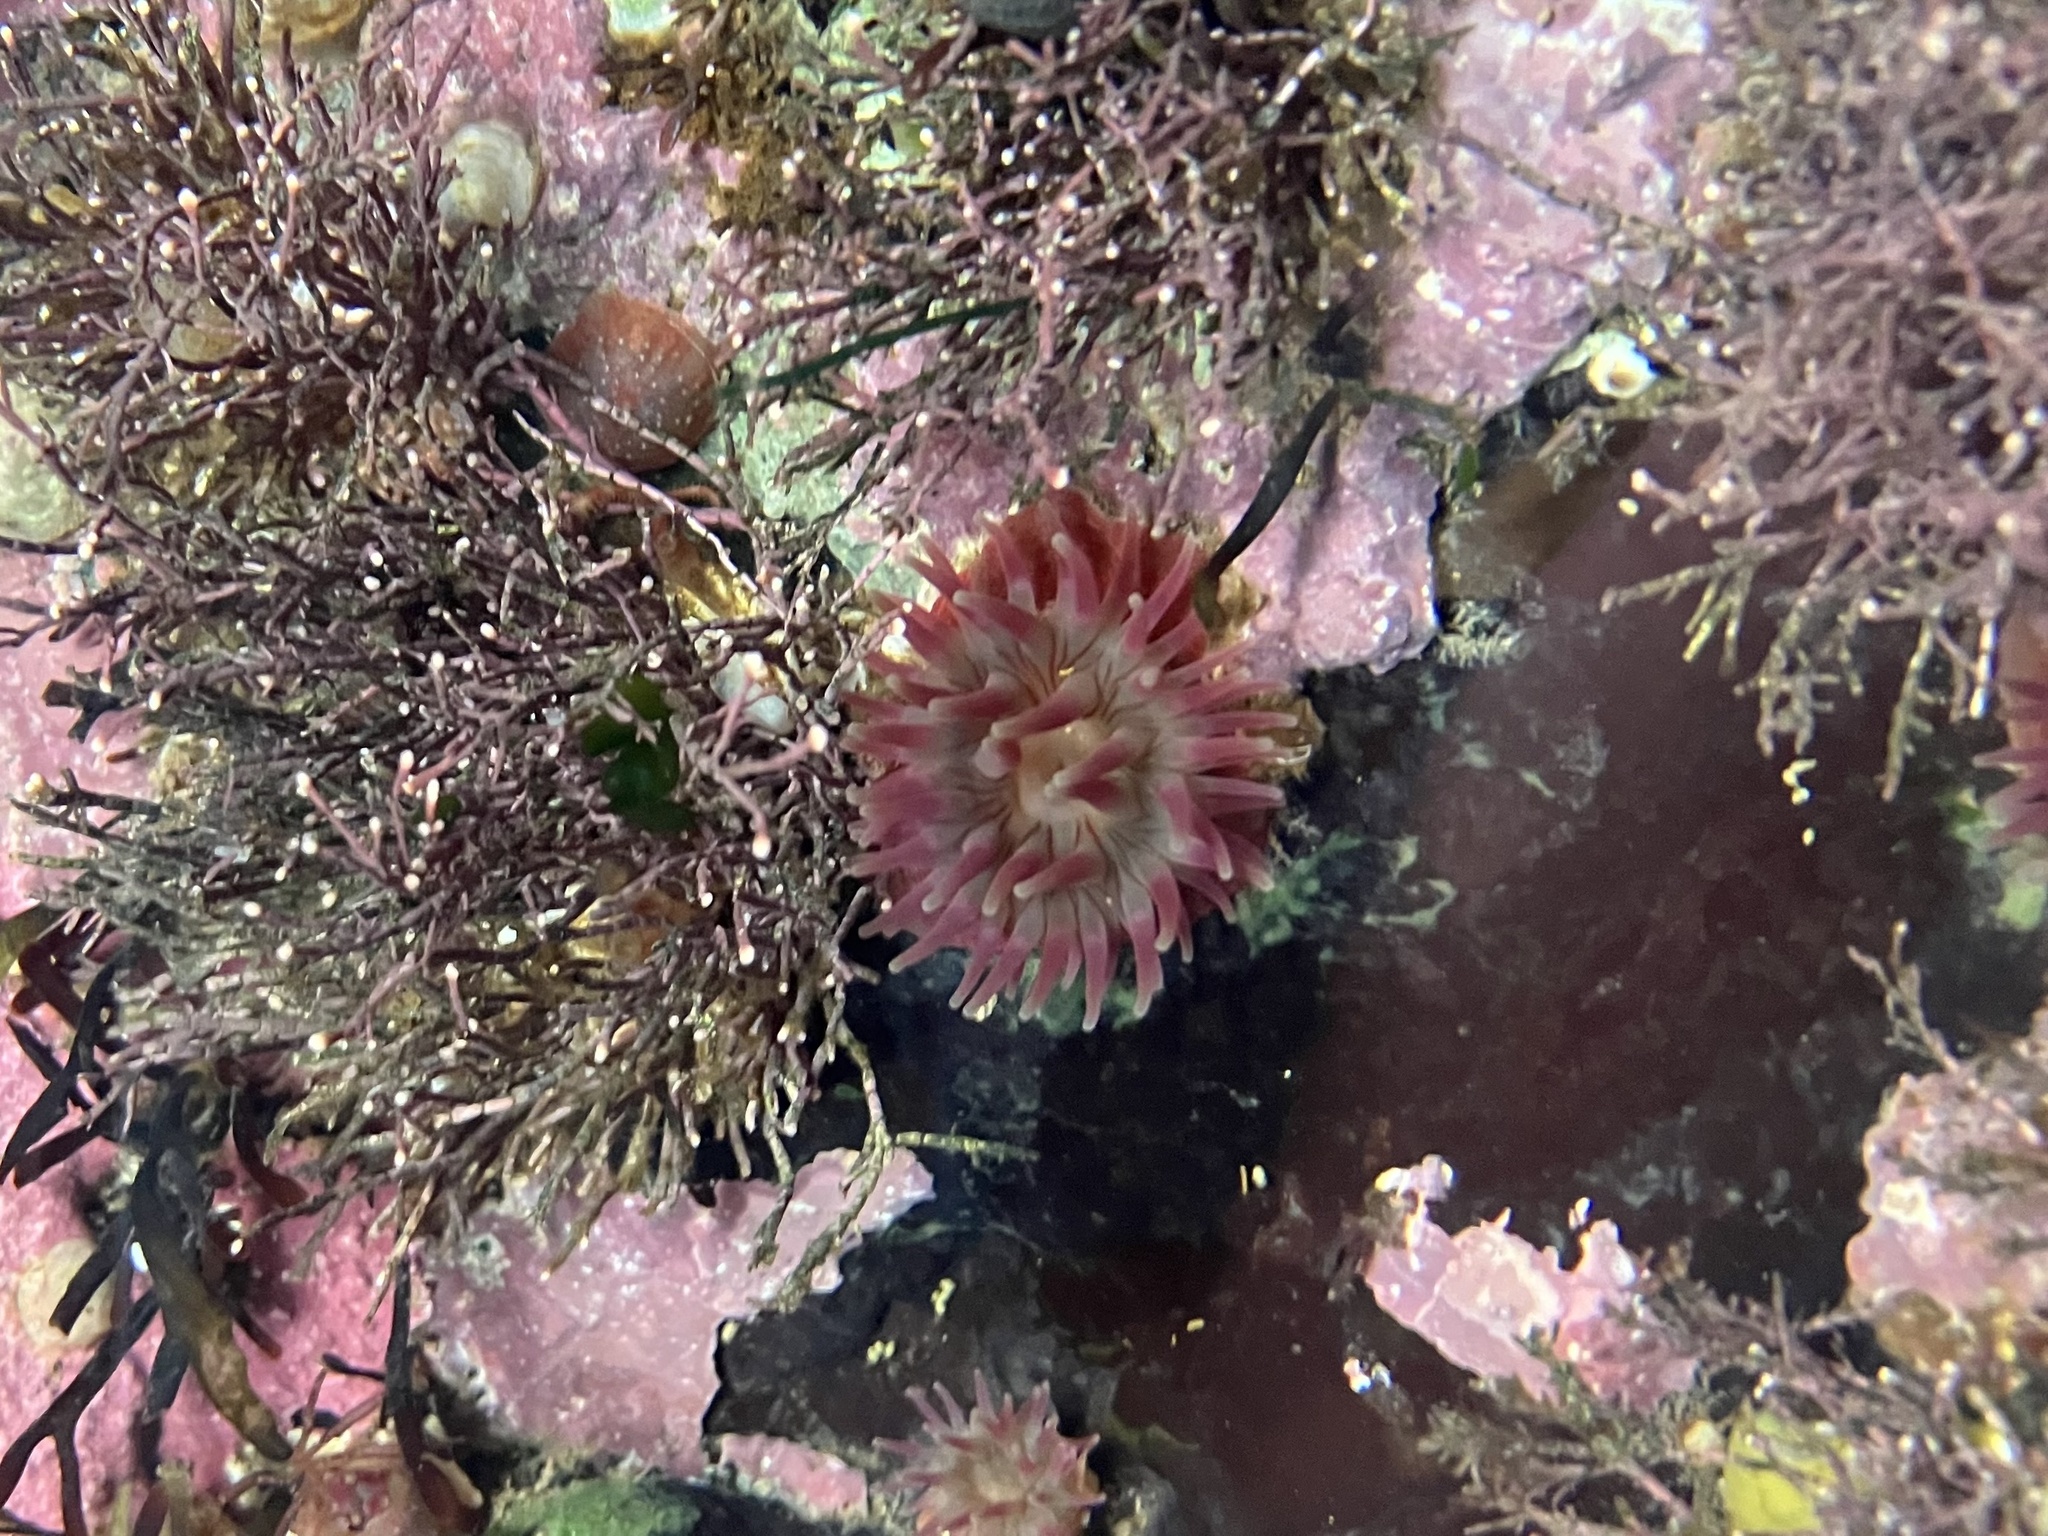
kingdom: Animalia
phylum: Cnidaria
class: Anthozoa
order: Actiniaria
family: Actiniidae
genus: Urticina
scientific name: Urticina crassicornis
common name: Mottled anemone
